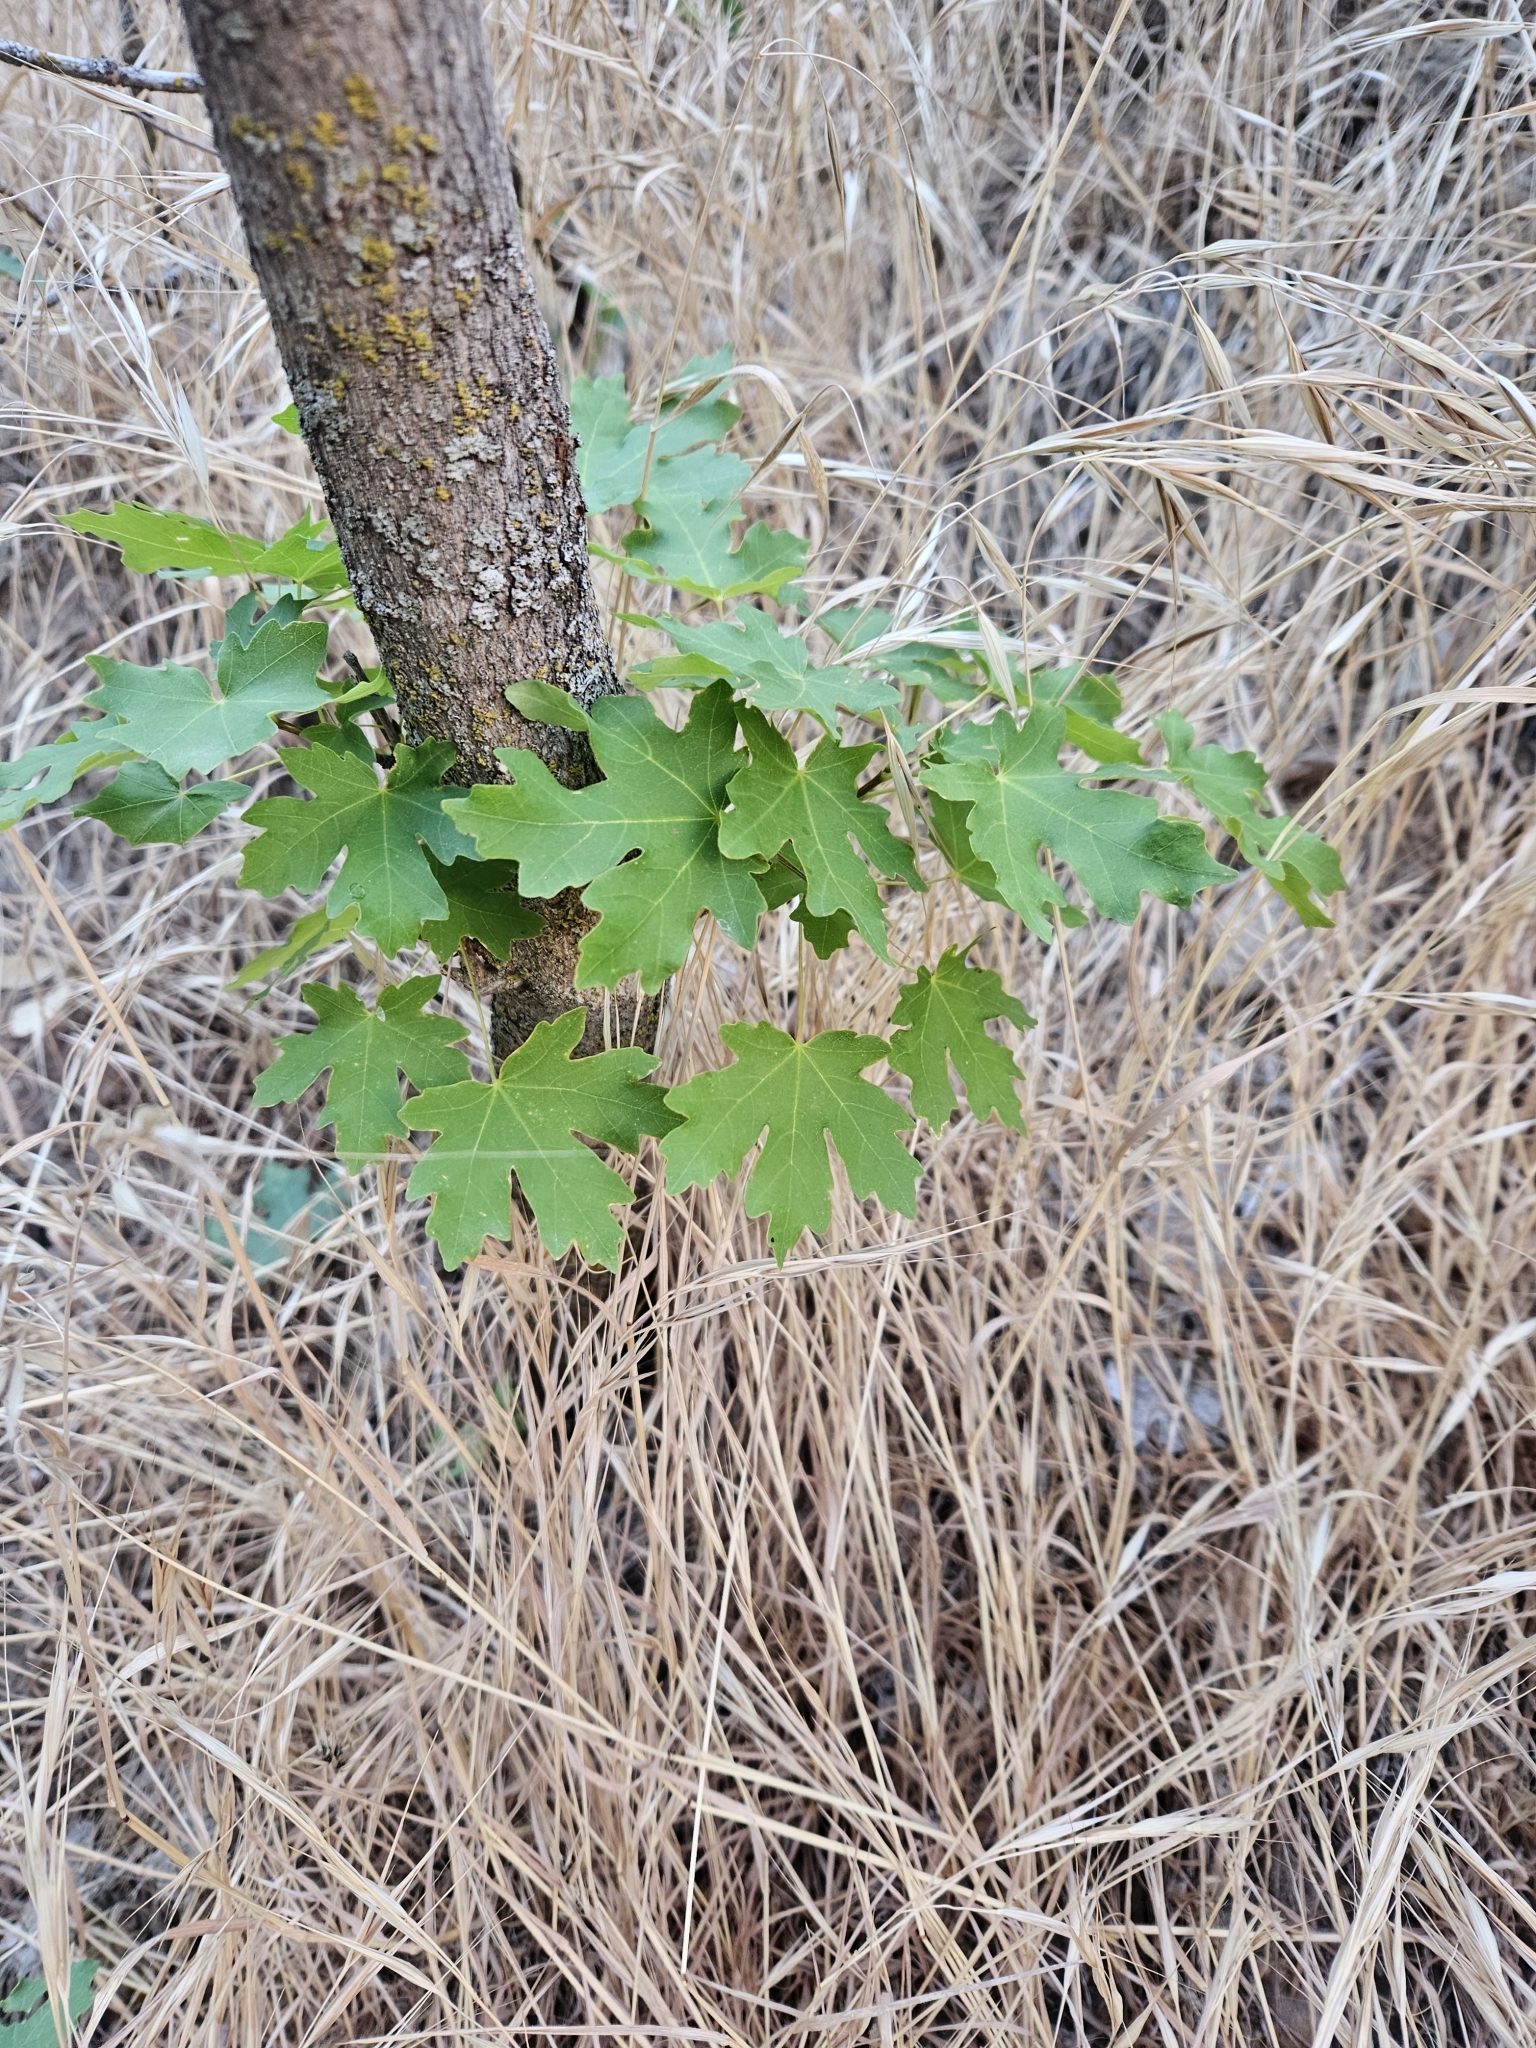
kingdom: Plantae
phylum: Tracheophyta
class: Magnoliopsida
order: Sapindales
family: Sapindaceae
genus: Acer
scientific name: Acer grandidentatum
